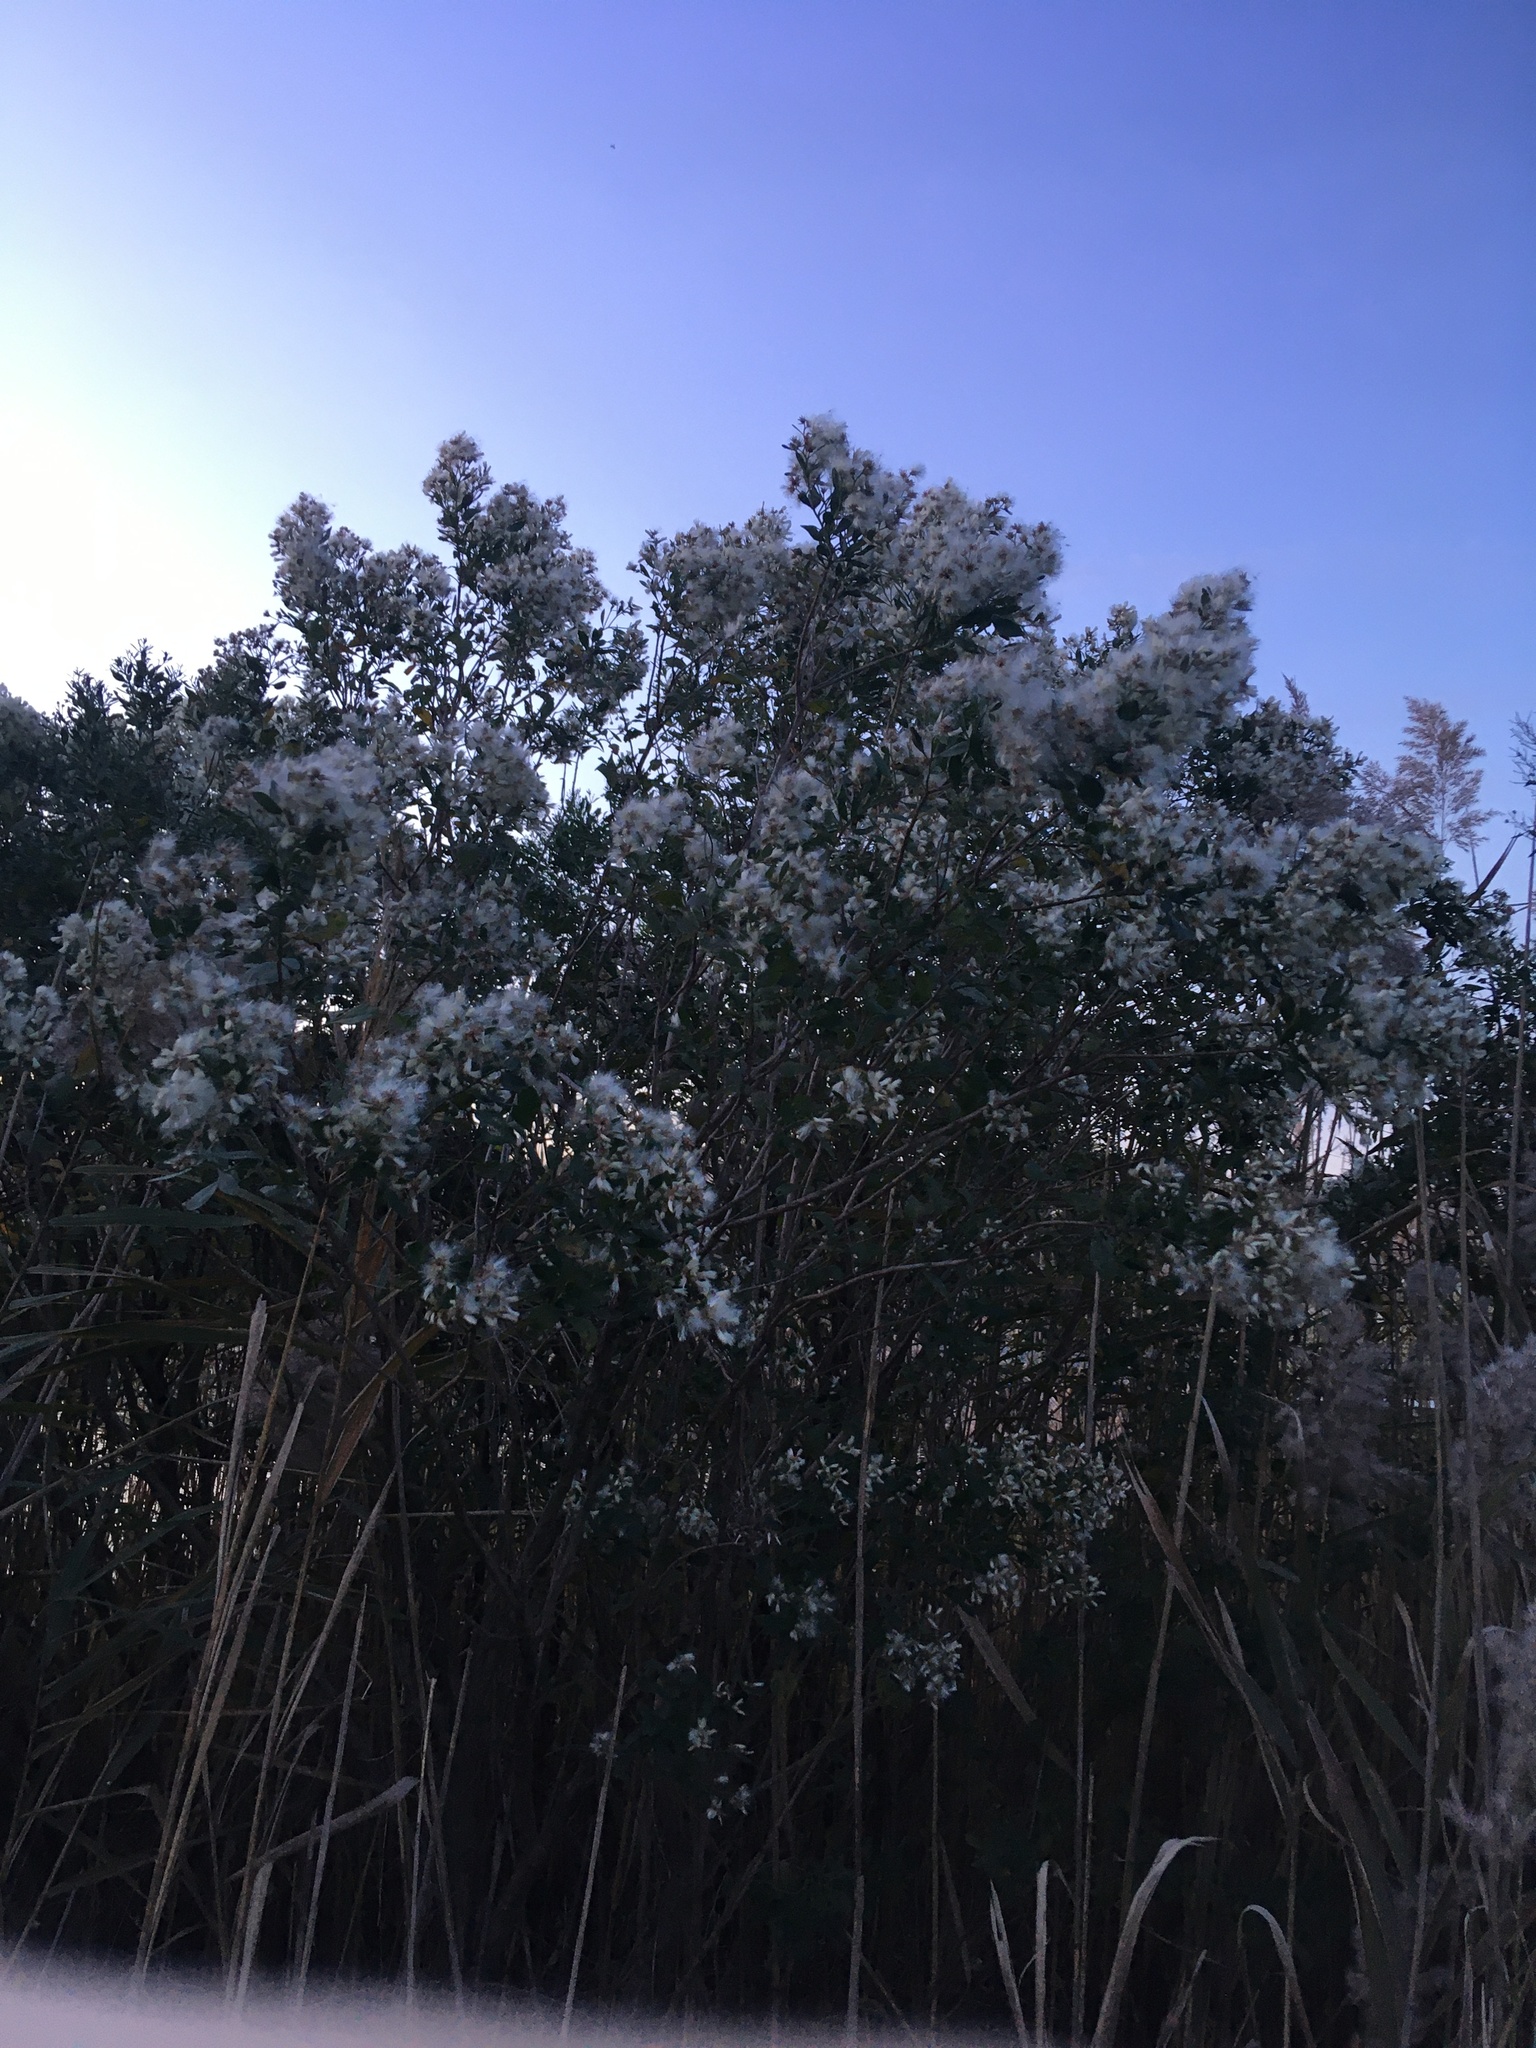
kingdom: Plantae
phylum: Tracheophyta
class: Magnoliopsida
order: Asterales
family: Asteraceae
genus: Baccharis
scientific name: Baccharis halimifolia
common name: Eastern baccharis
